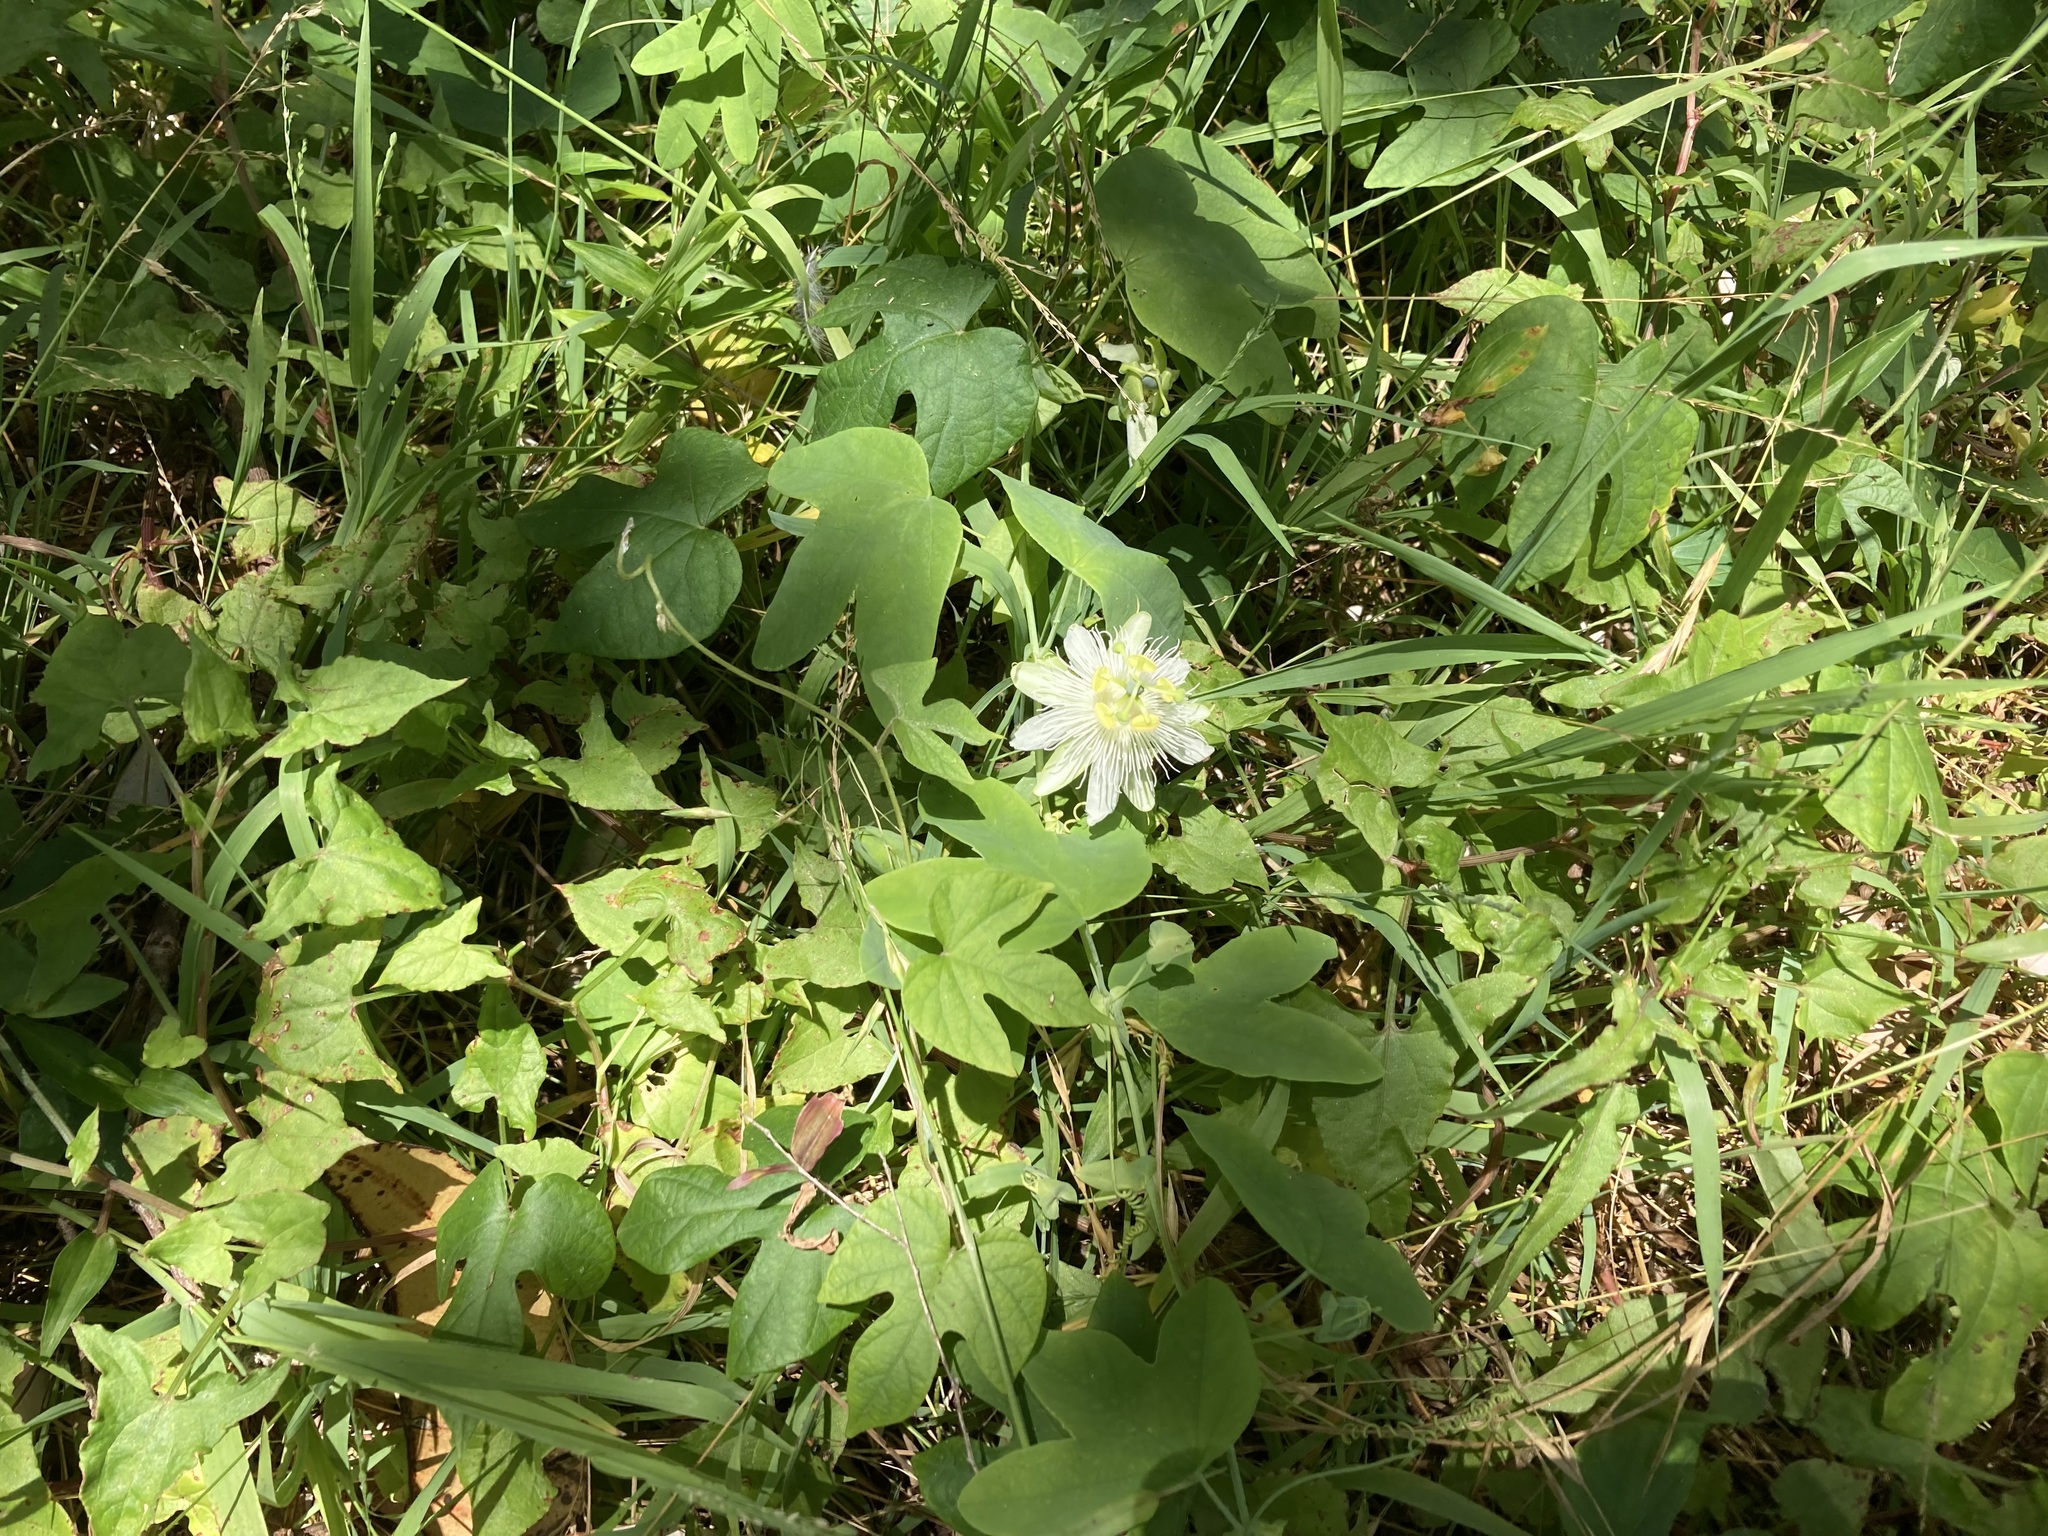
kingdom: Plantae
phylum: Tracheophyta
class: Magnoliopsida
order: Malpighiales
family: Passifloraceae
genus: Passiflora
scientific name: Passiflora subpeltata
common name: White passionflower
